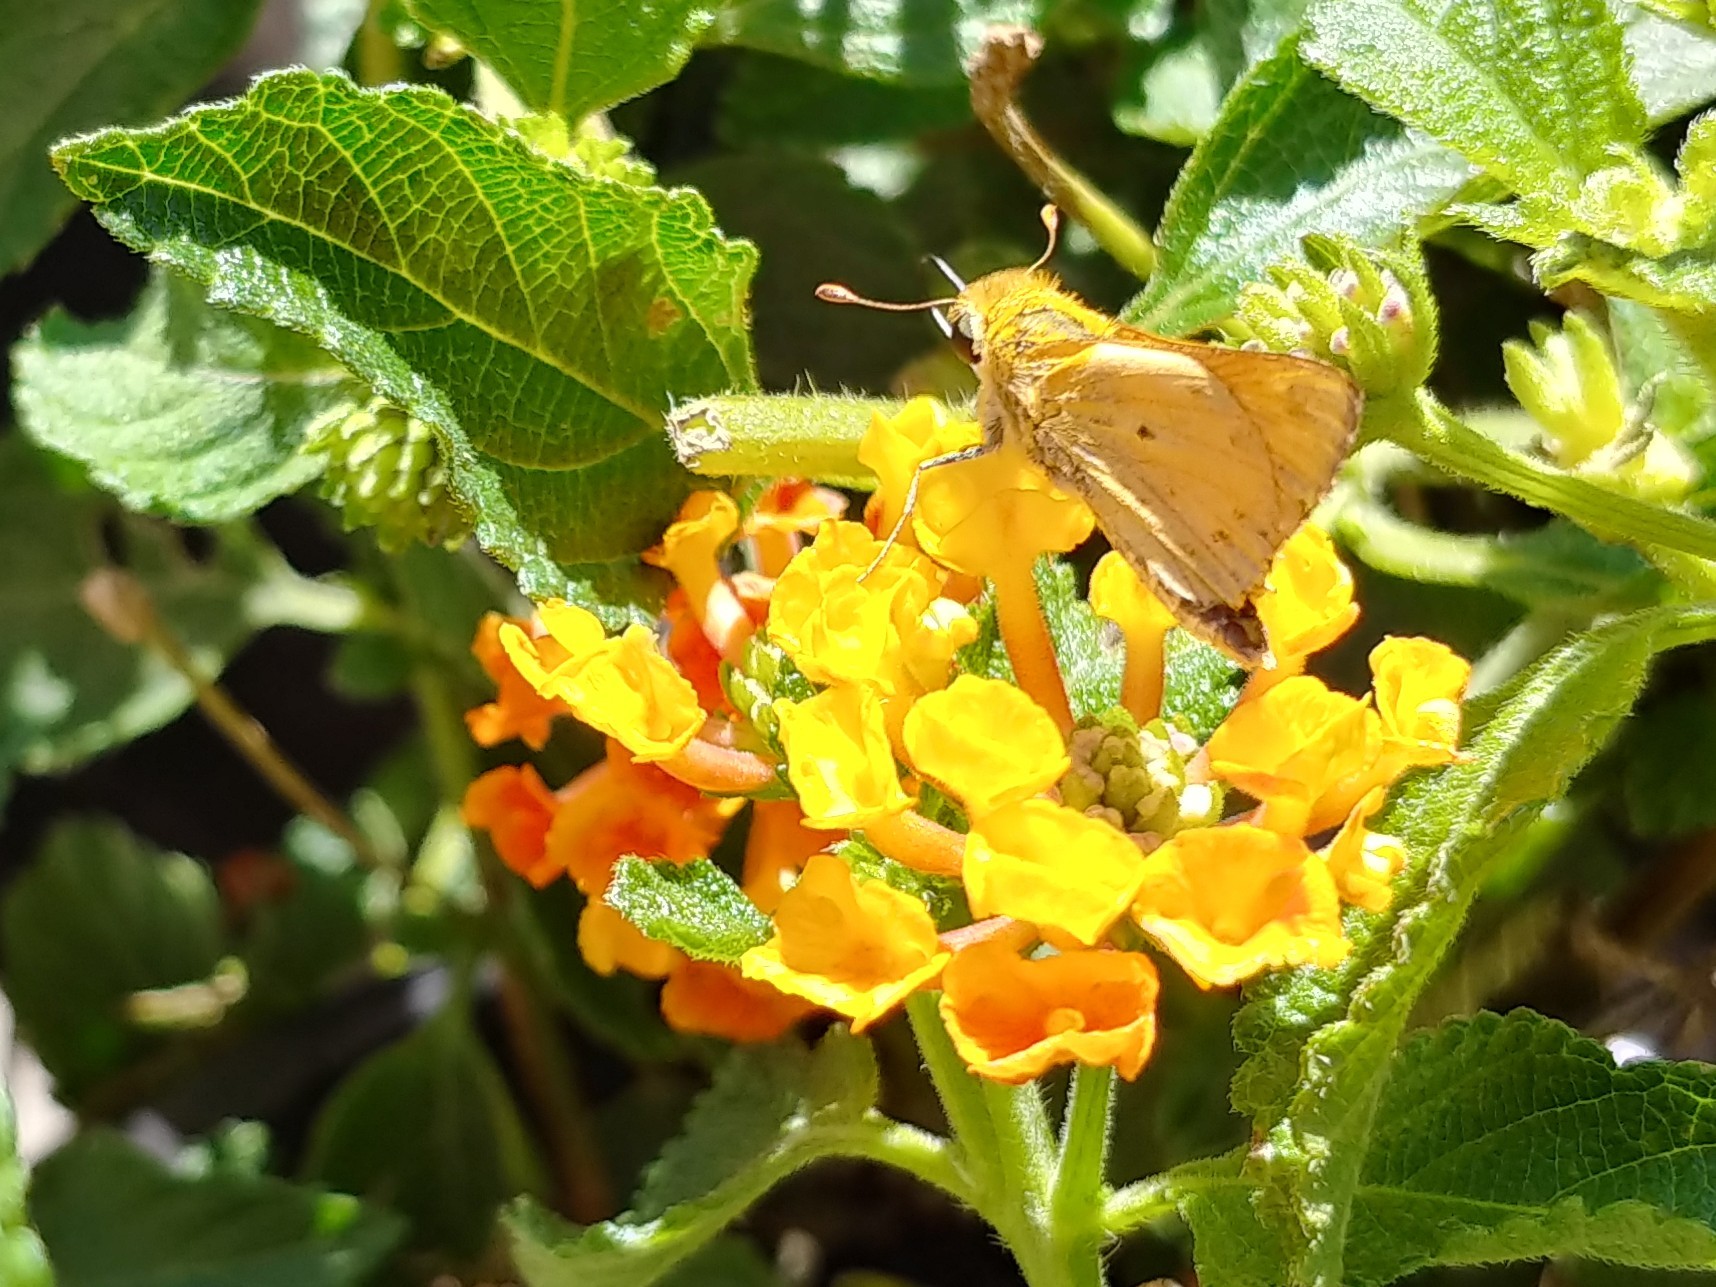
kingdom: Animalia
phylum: Arthropoda
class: Insecta
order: Lepidoptera
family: Hesperiidae
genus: Hylephila
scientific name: Hylephila phyleus
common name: Fiery skipper
